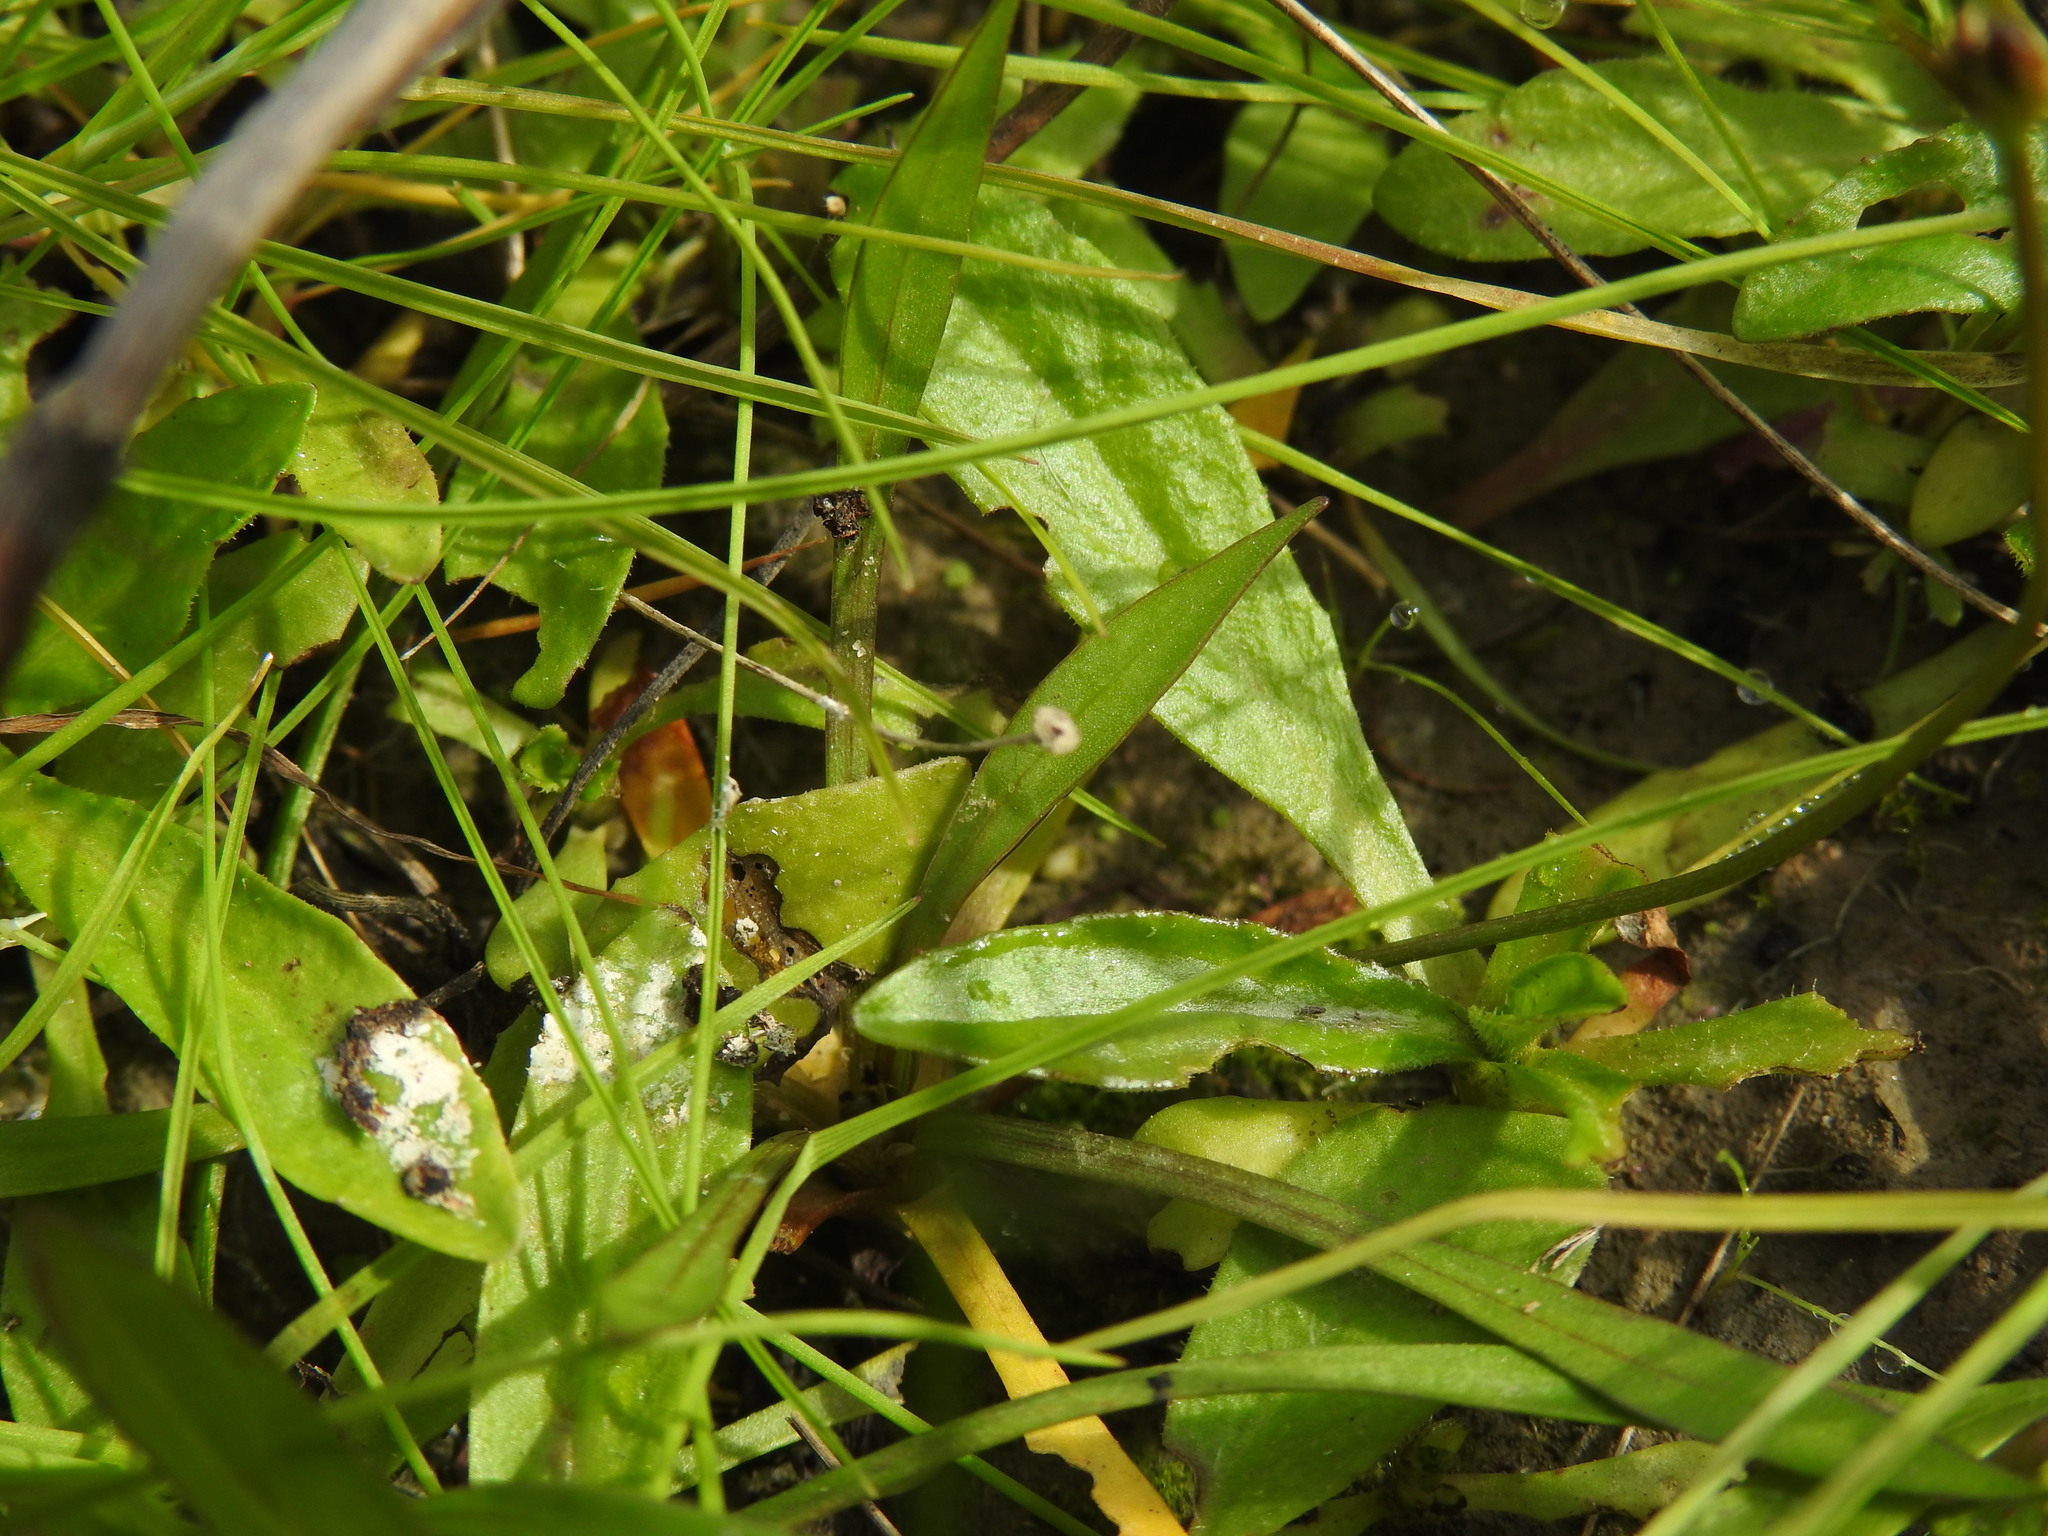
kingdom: Plantae
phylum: Tracheophyta
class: Liliopsida
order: Alismatales
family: Alismataceae
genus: Baldellia
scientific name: Baldellia repens
